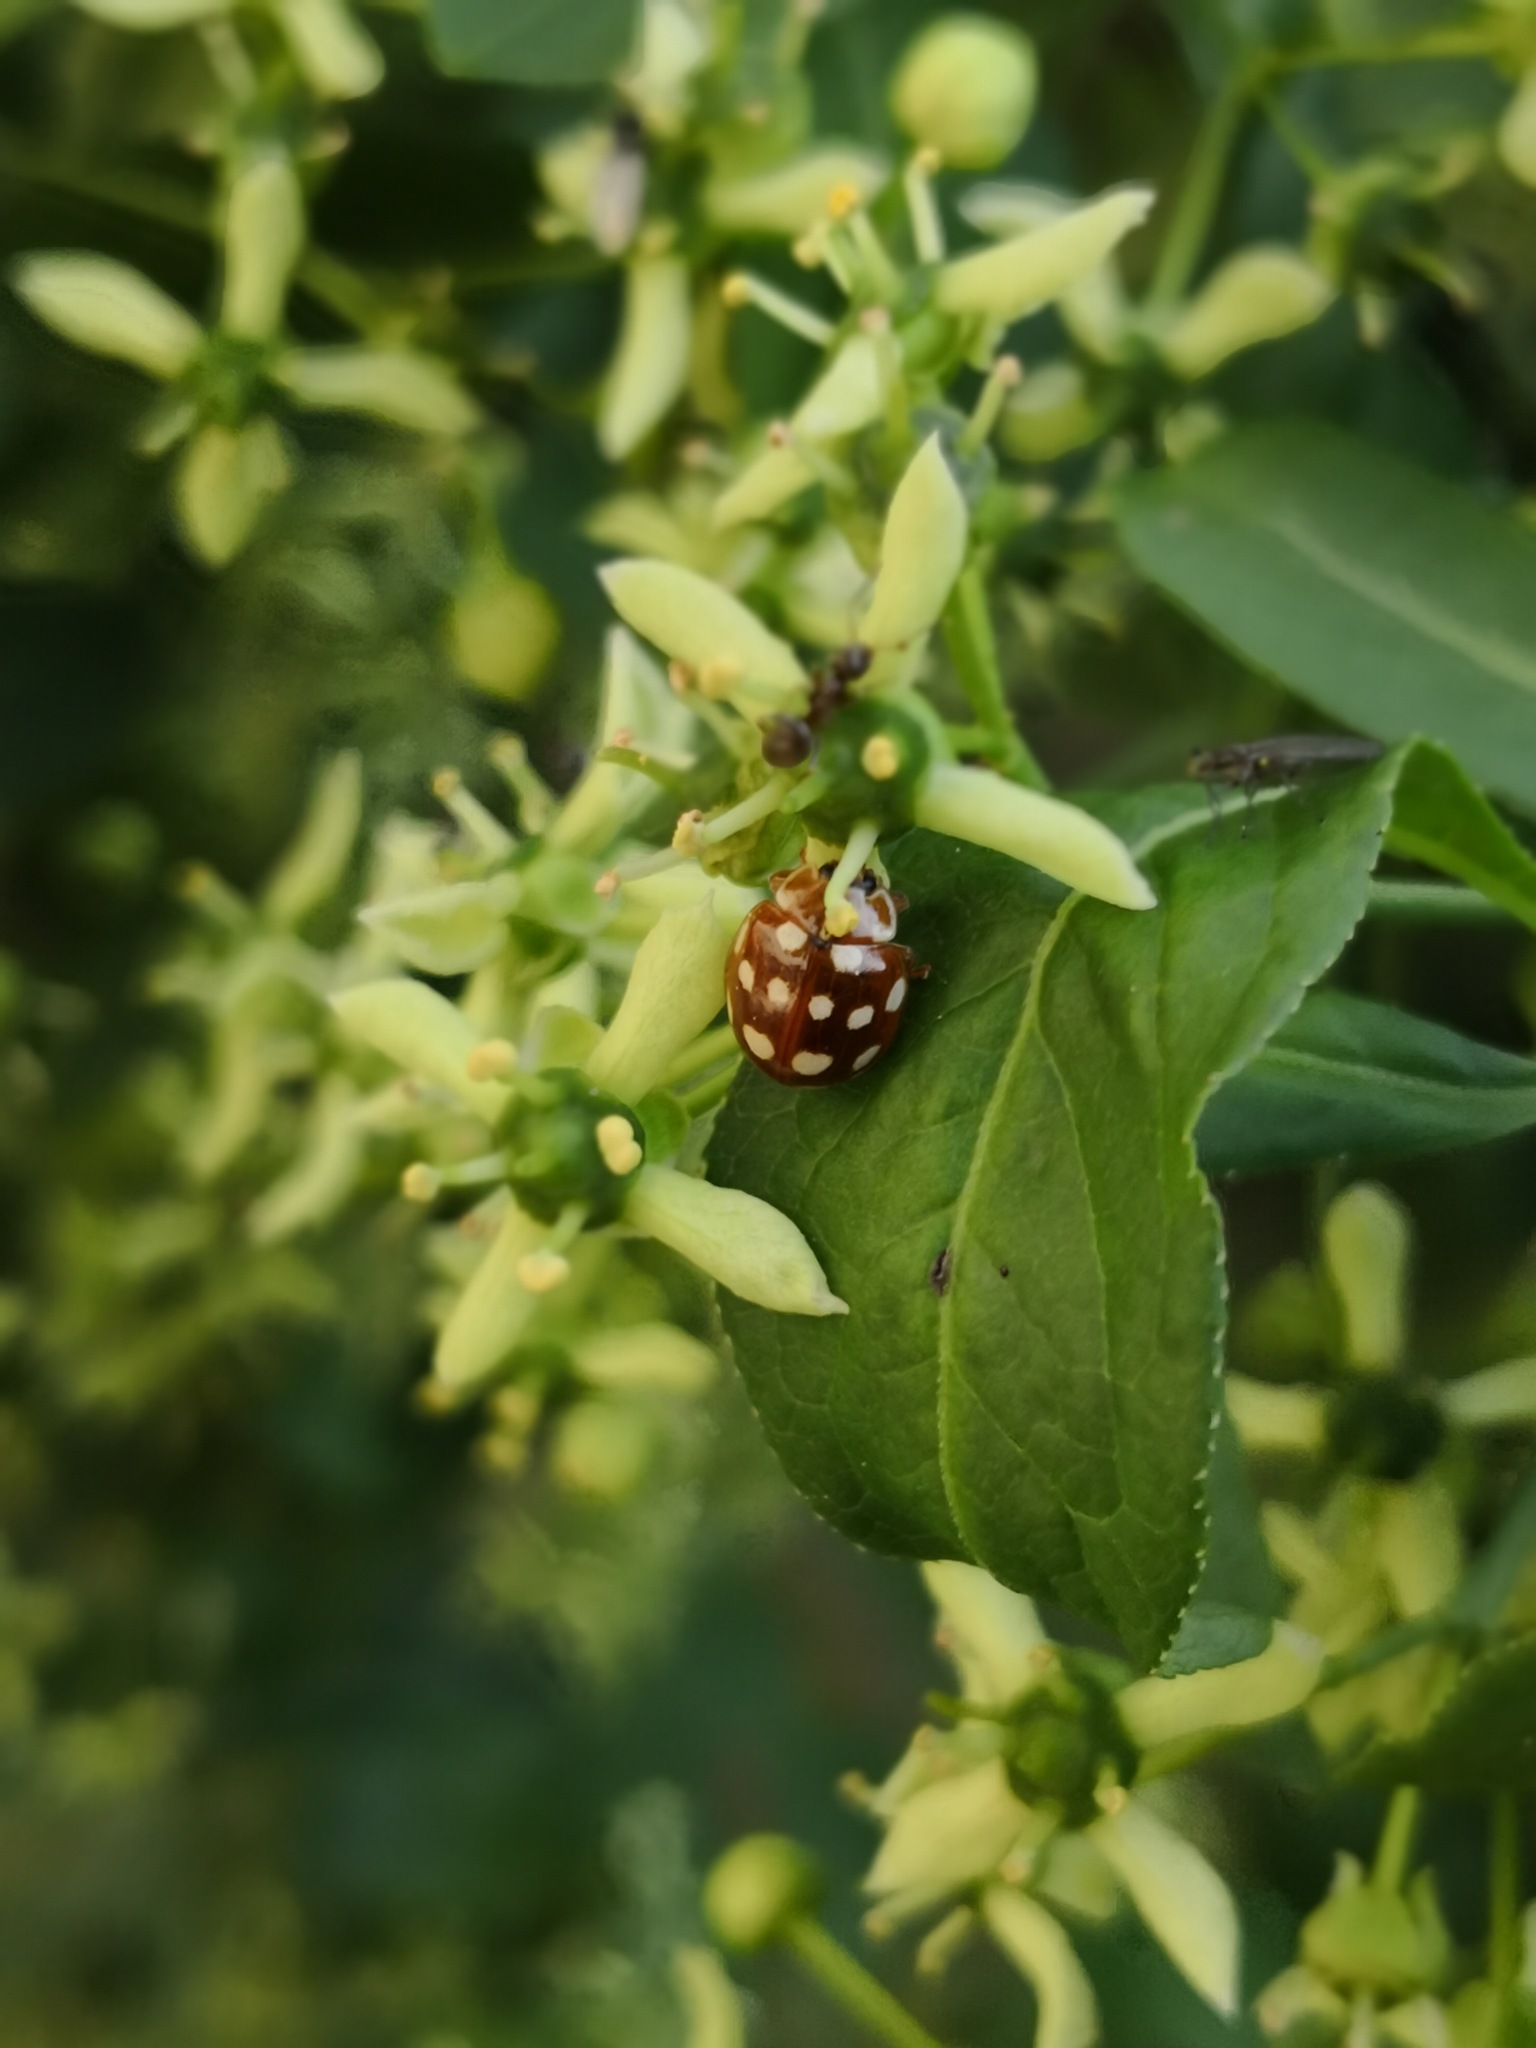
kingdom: Animalia
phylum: Arthropoda
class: Insecta
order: Coleoptera
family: Coccinellidae
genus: Calvia
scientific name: Calvia quatuordecimguttata
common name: Cream-spot ladybird
